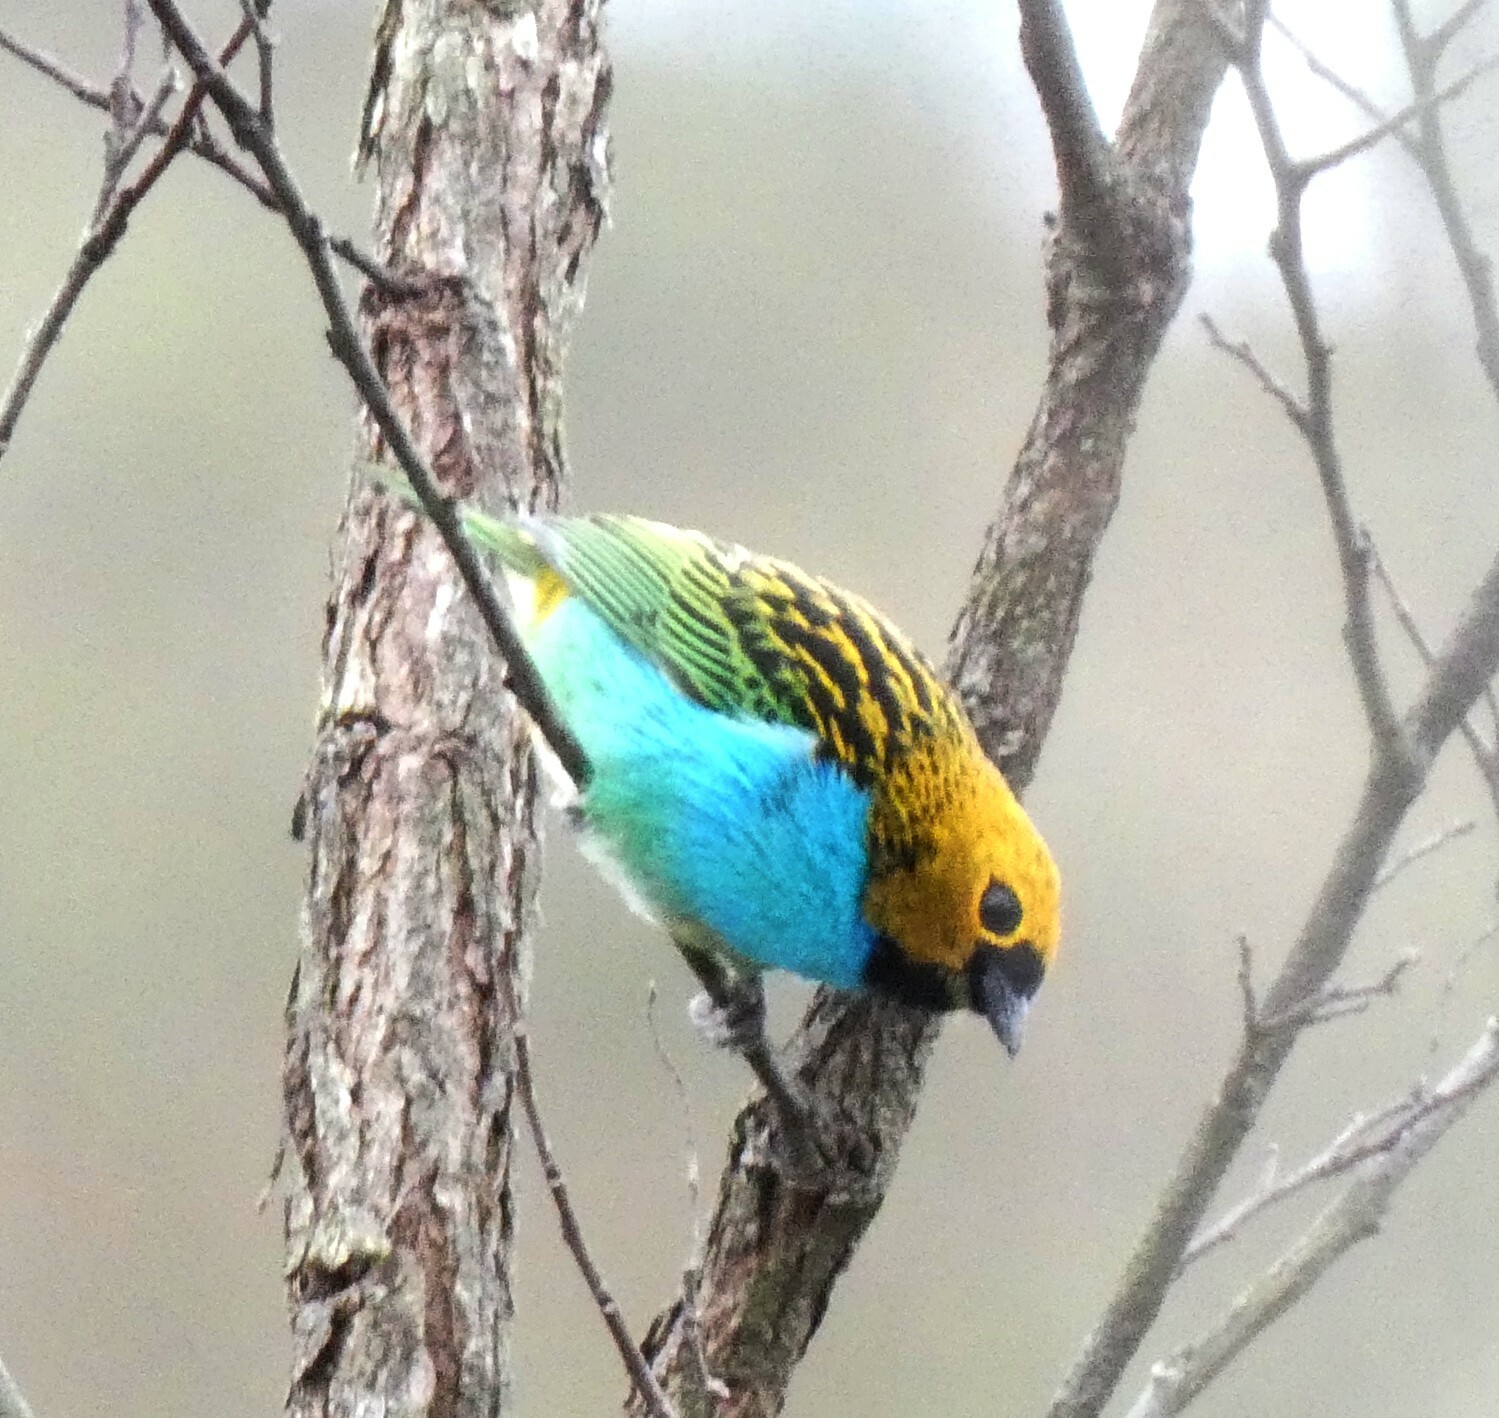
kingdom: Animalia
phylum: Chordata
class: Aves
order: Passeriformes
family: Thraupidae
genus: Tangara
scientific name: Tangara cyanoventris
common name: Gilt-edged tanager
